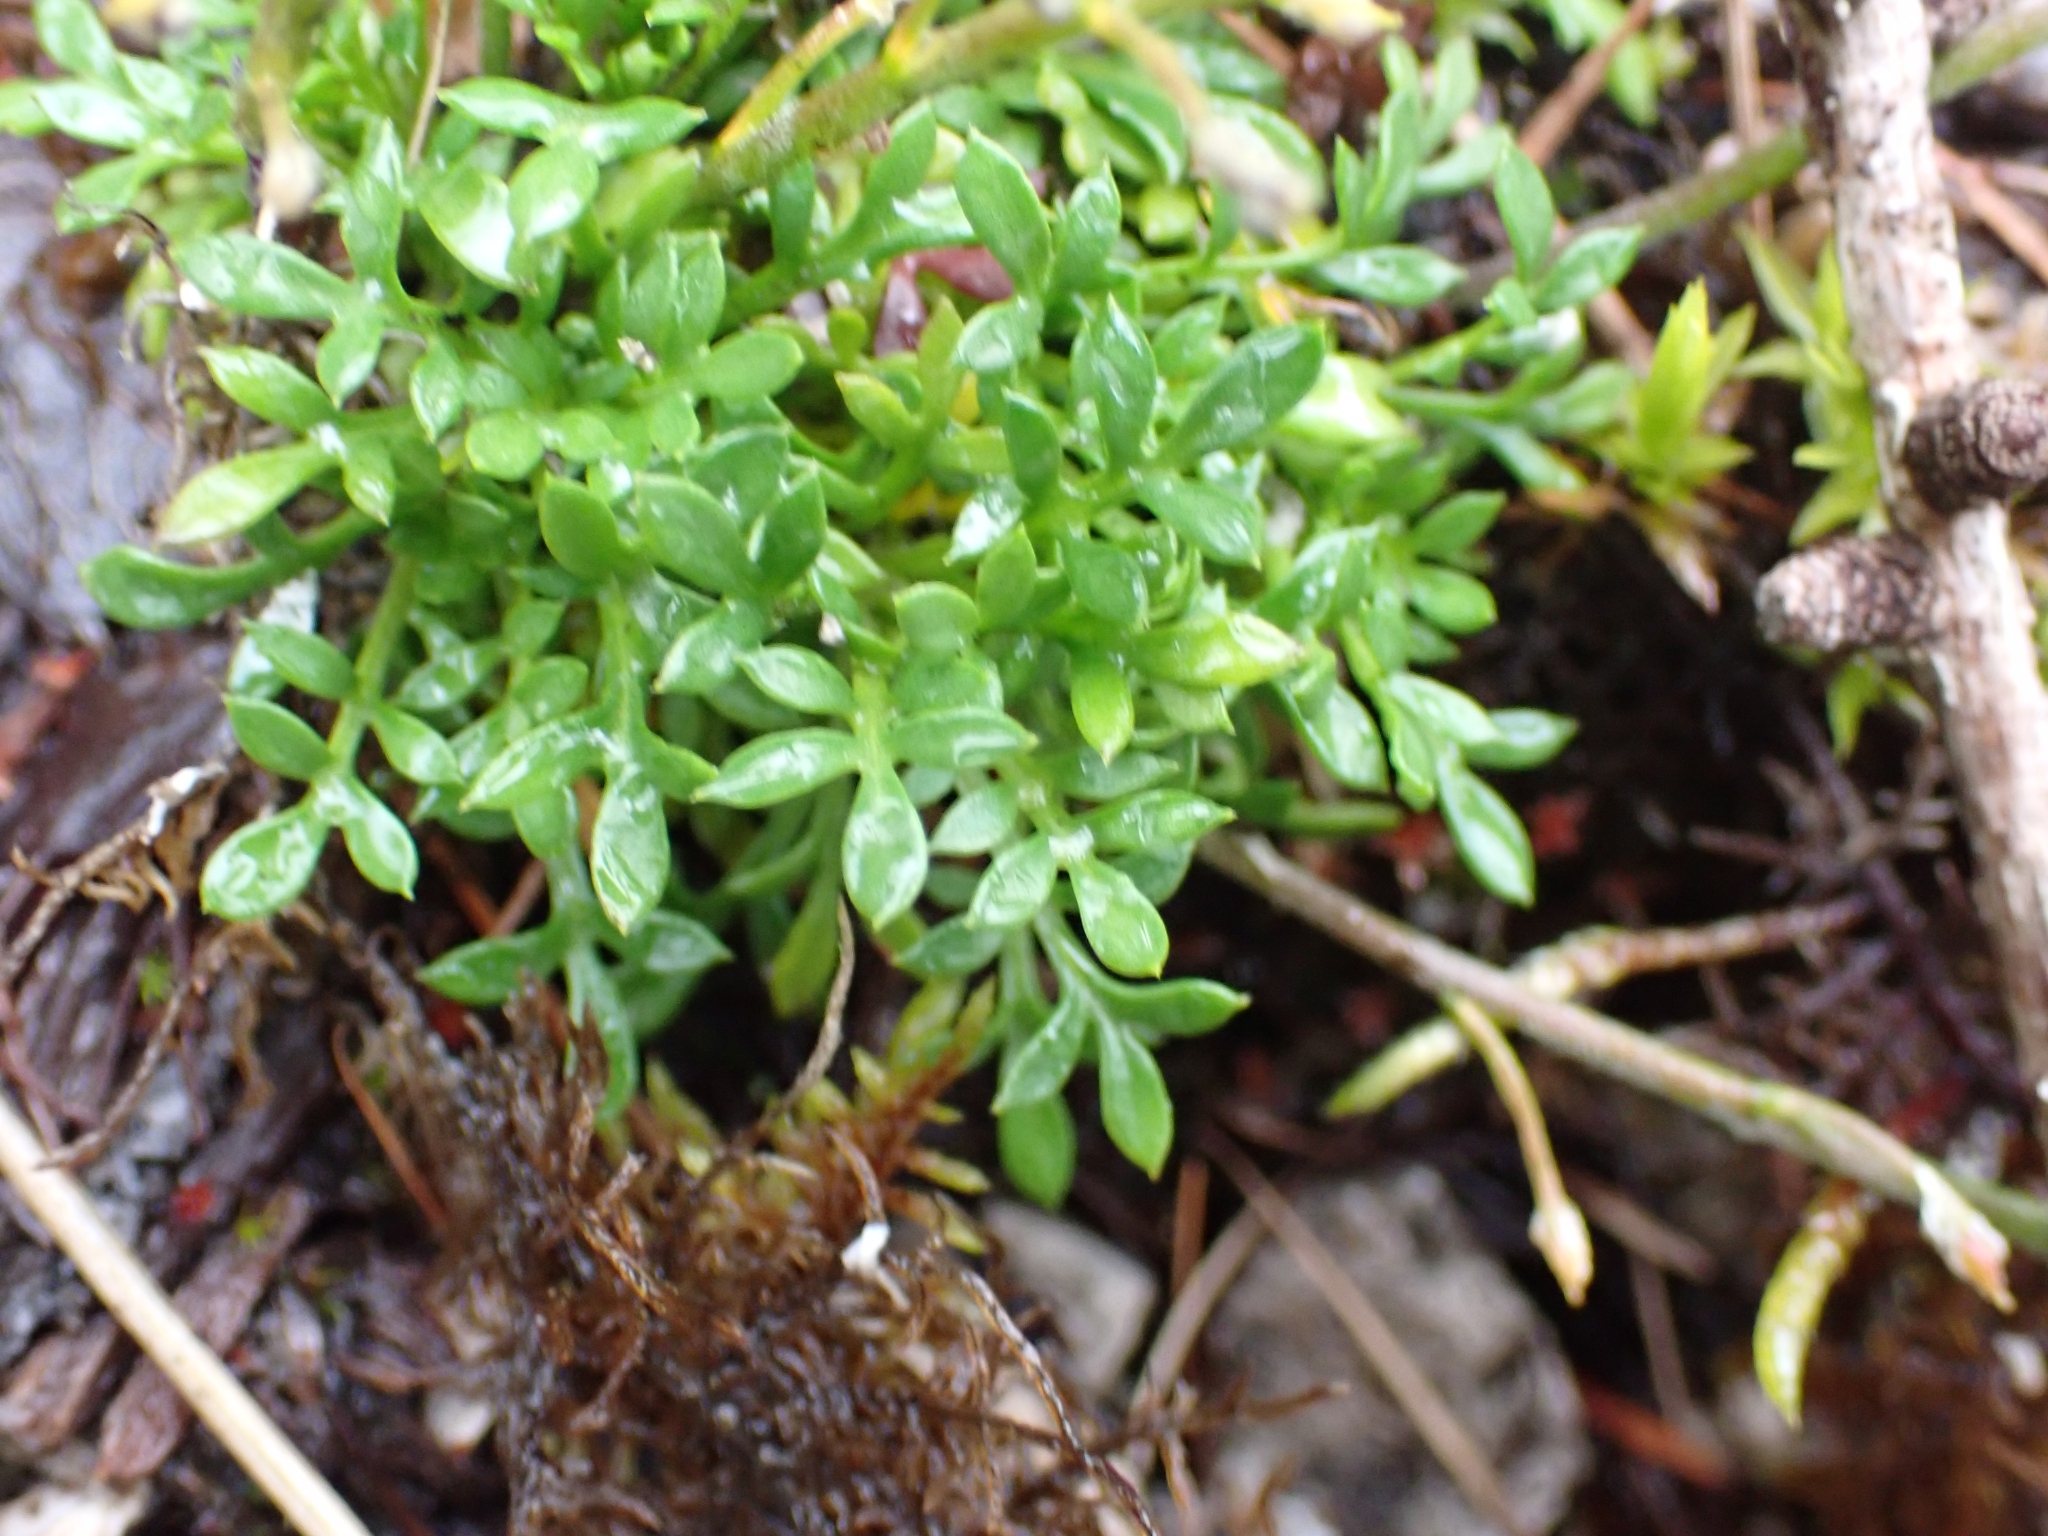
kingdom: Plantae
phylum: Tracheophyta
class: Magnoliopsida
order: Brassicales
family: Brassicaceae
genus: Hornungia
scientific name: Hornungia alpina
